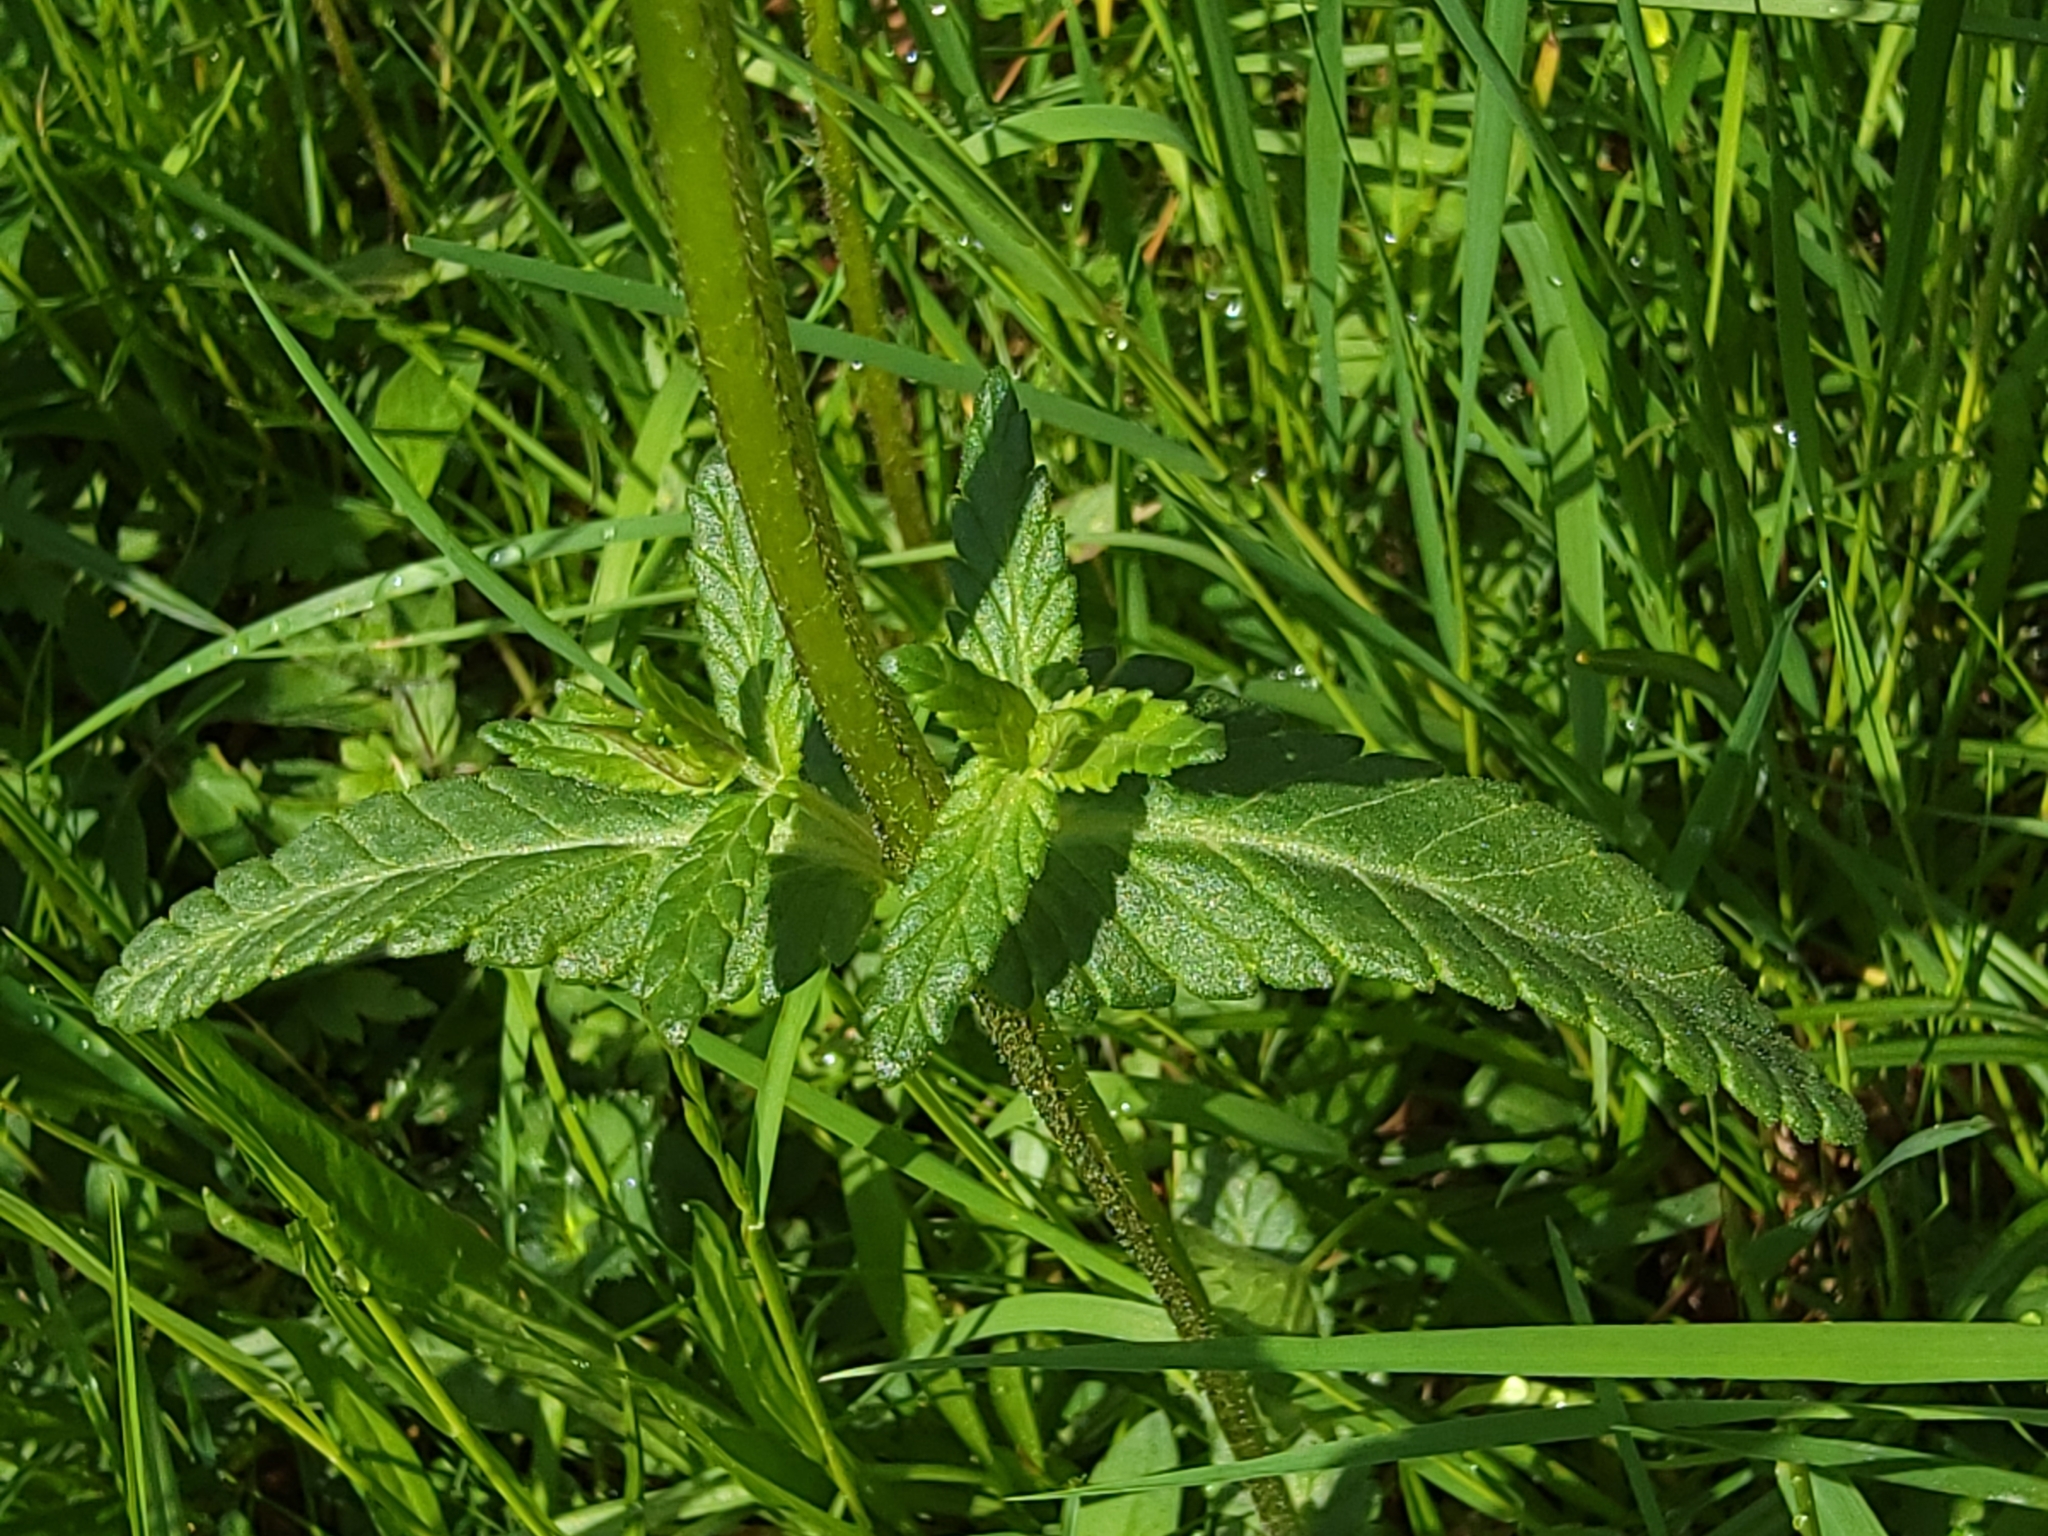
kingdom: Plantae
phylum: Tracheophyta
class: Magnoliopsida
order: Lamiales
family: Orobanchaceae
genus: Rhinanthus
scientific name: Rhinanthus alectorolophus
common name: Greater yellow-rattle
